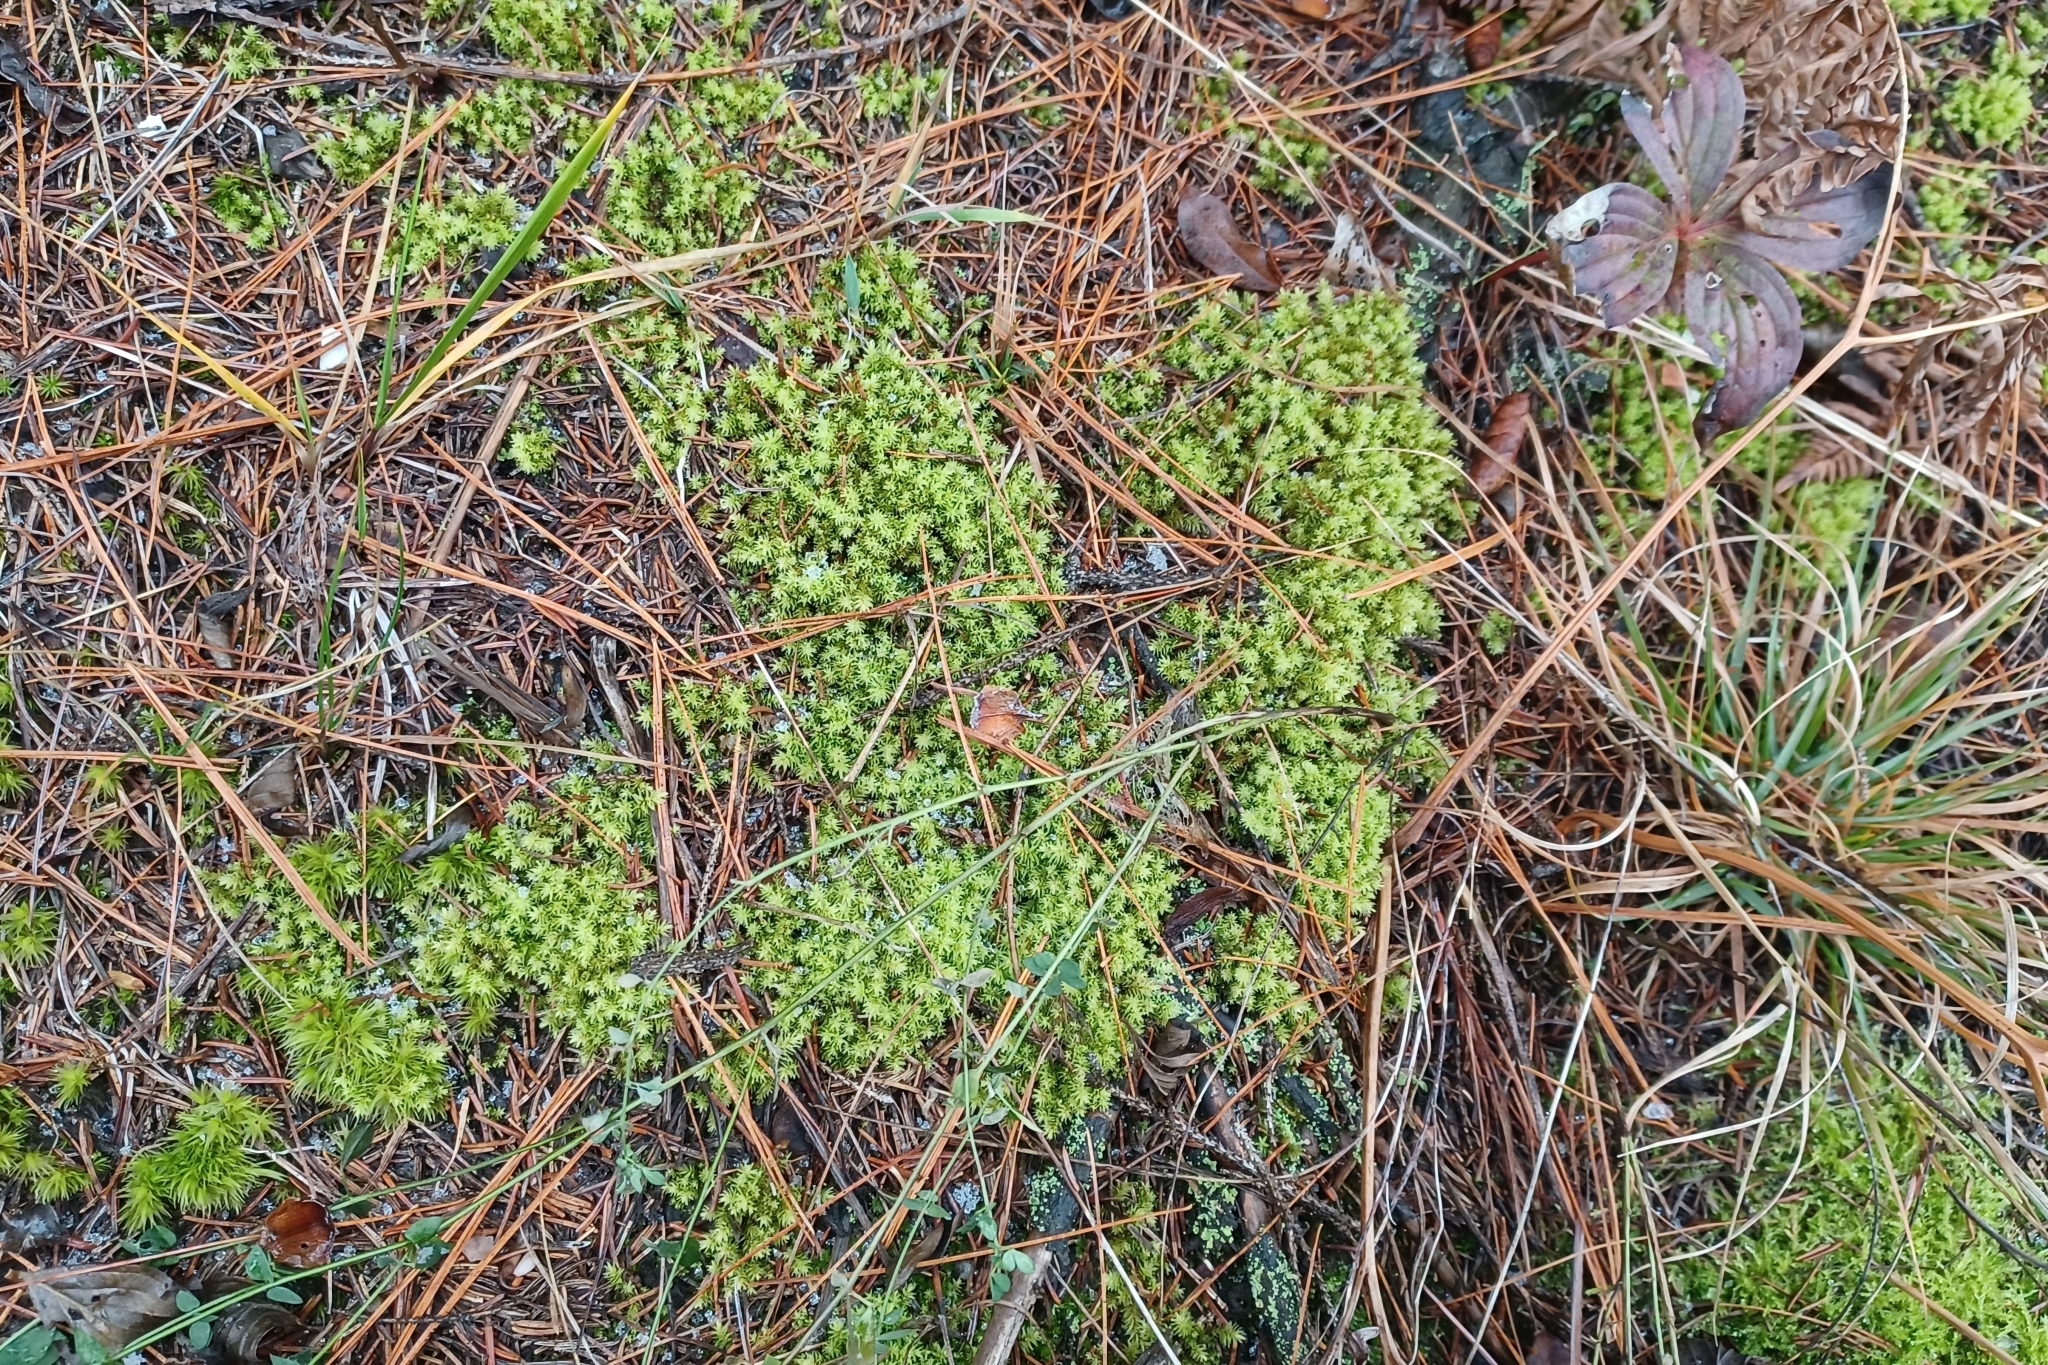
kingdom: Plantae
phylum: Bryophyta
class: Bryopsida
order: Aulacomniales
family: Aulacomniaceae
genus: Aulacomnium
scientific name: Aulacomnium palustre
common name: Bog groove-moss
